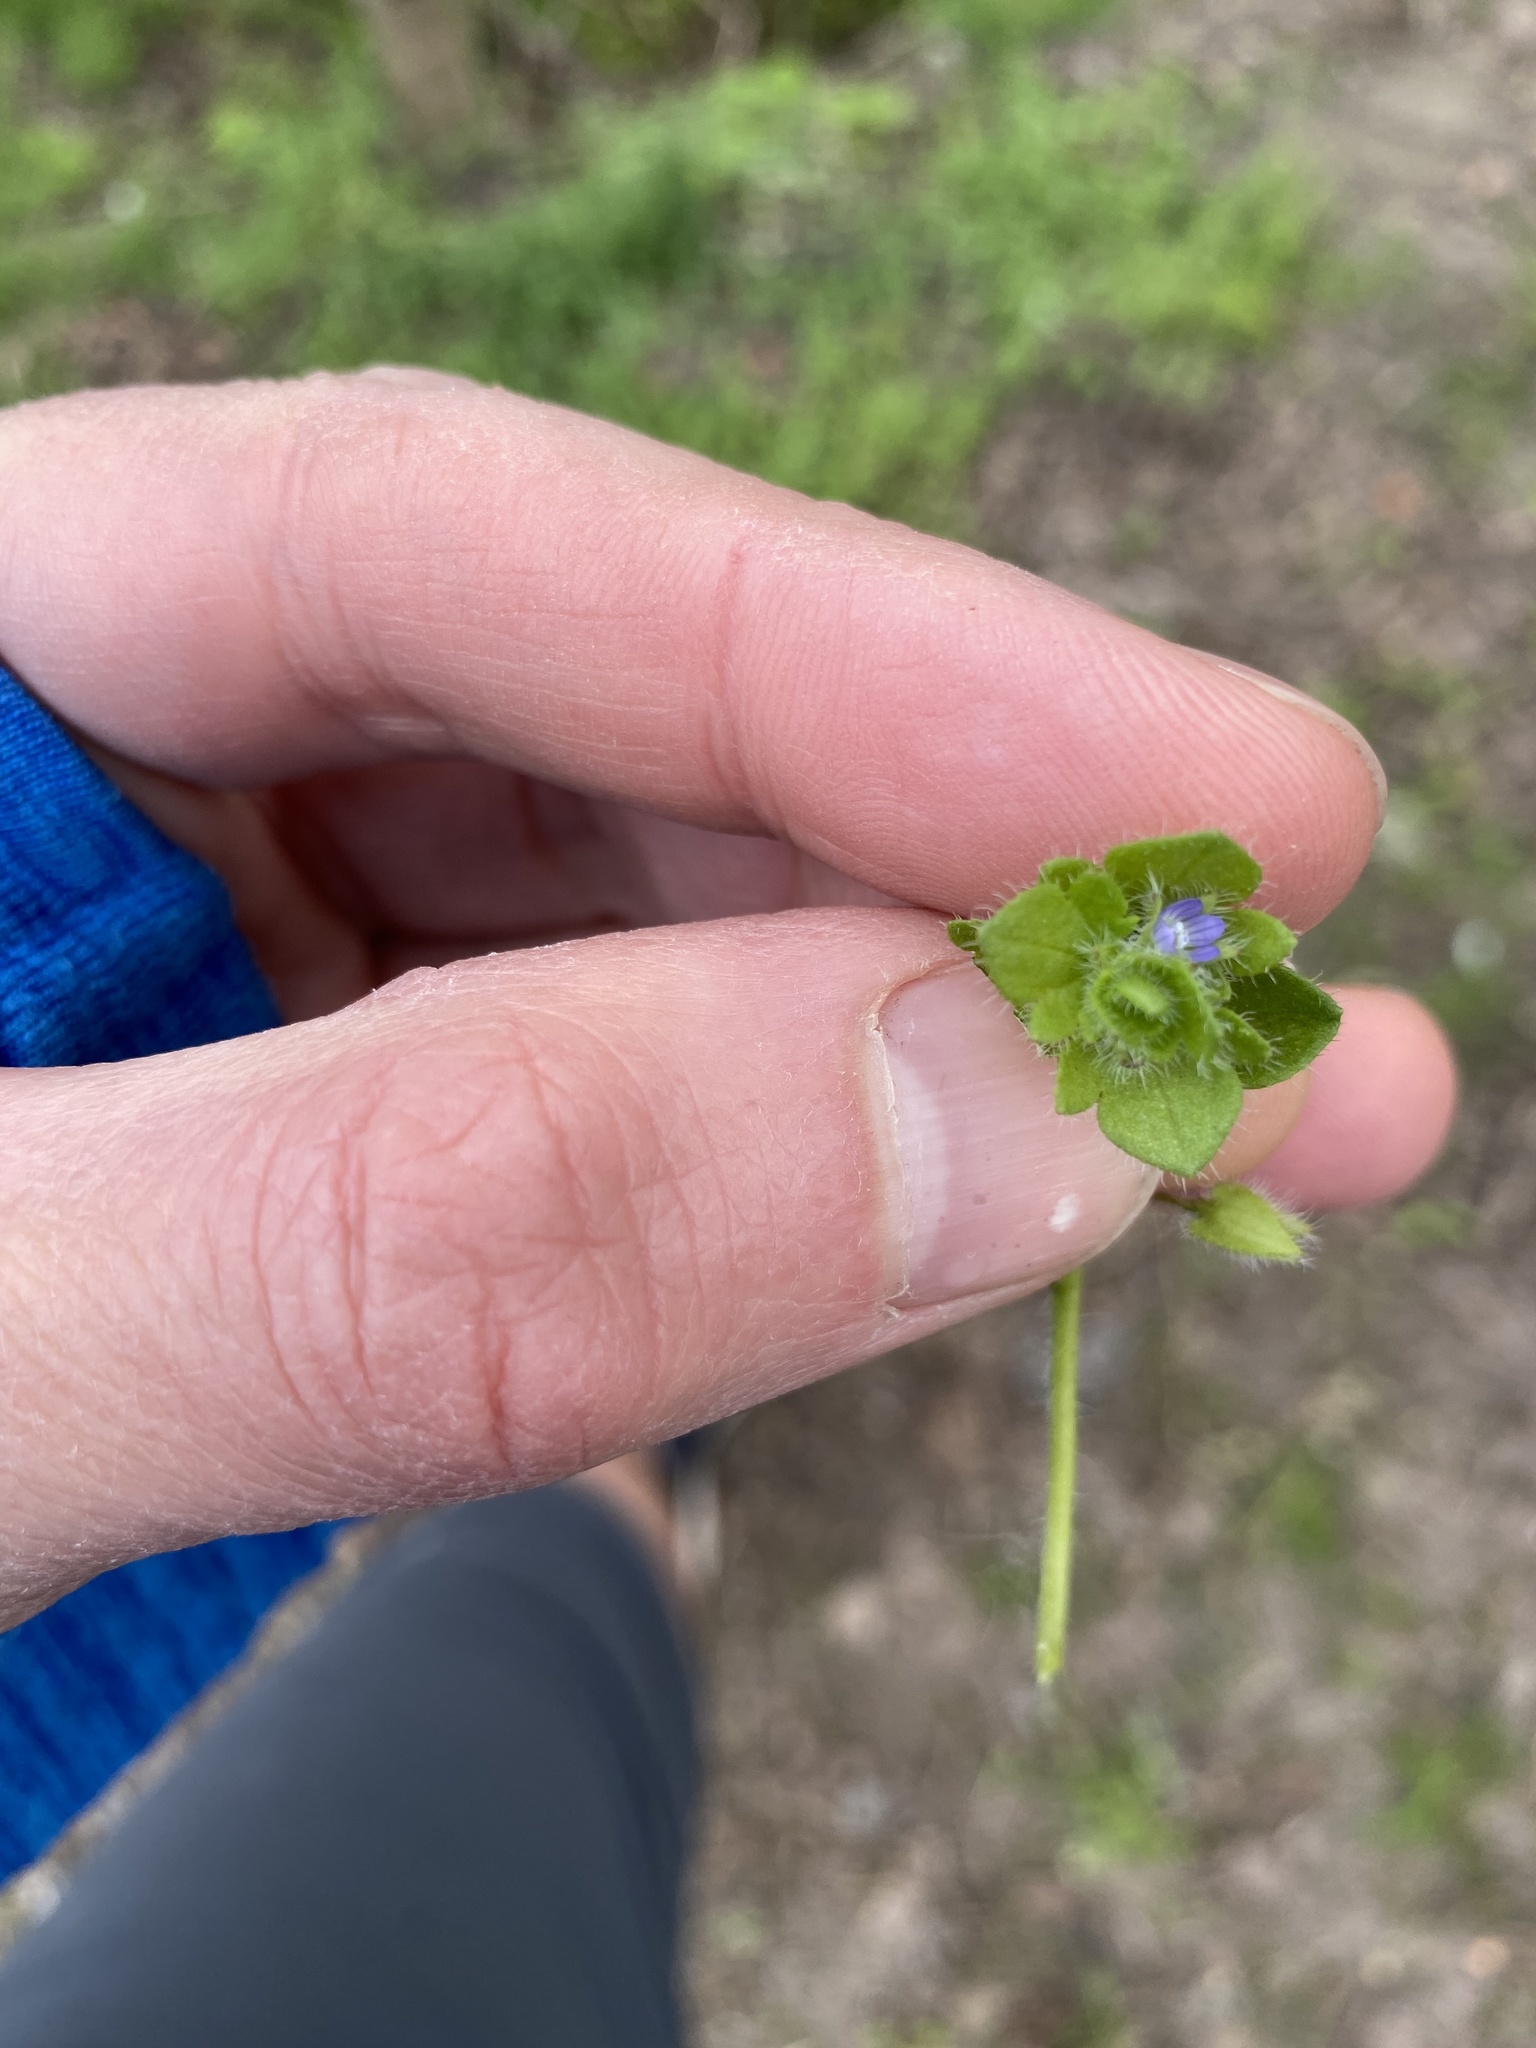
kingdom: Plantae
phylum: Tracheophyta
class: Magnoliopsida
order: Lamiales
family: Plantaginaceae
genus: Veronica
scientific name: Veronica hederifolia
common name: Ivy-leaved speedwell
